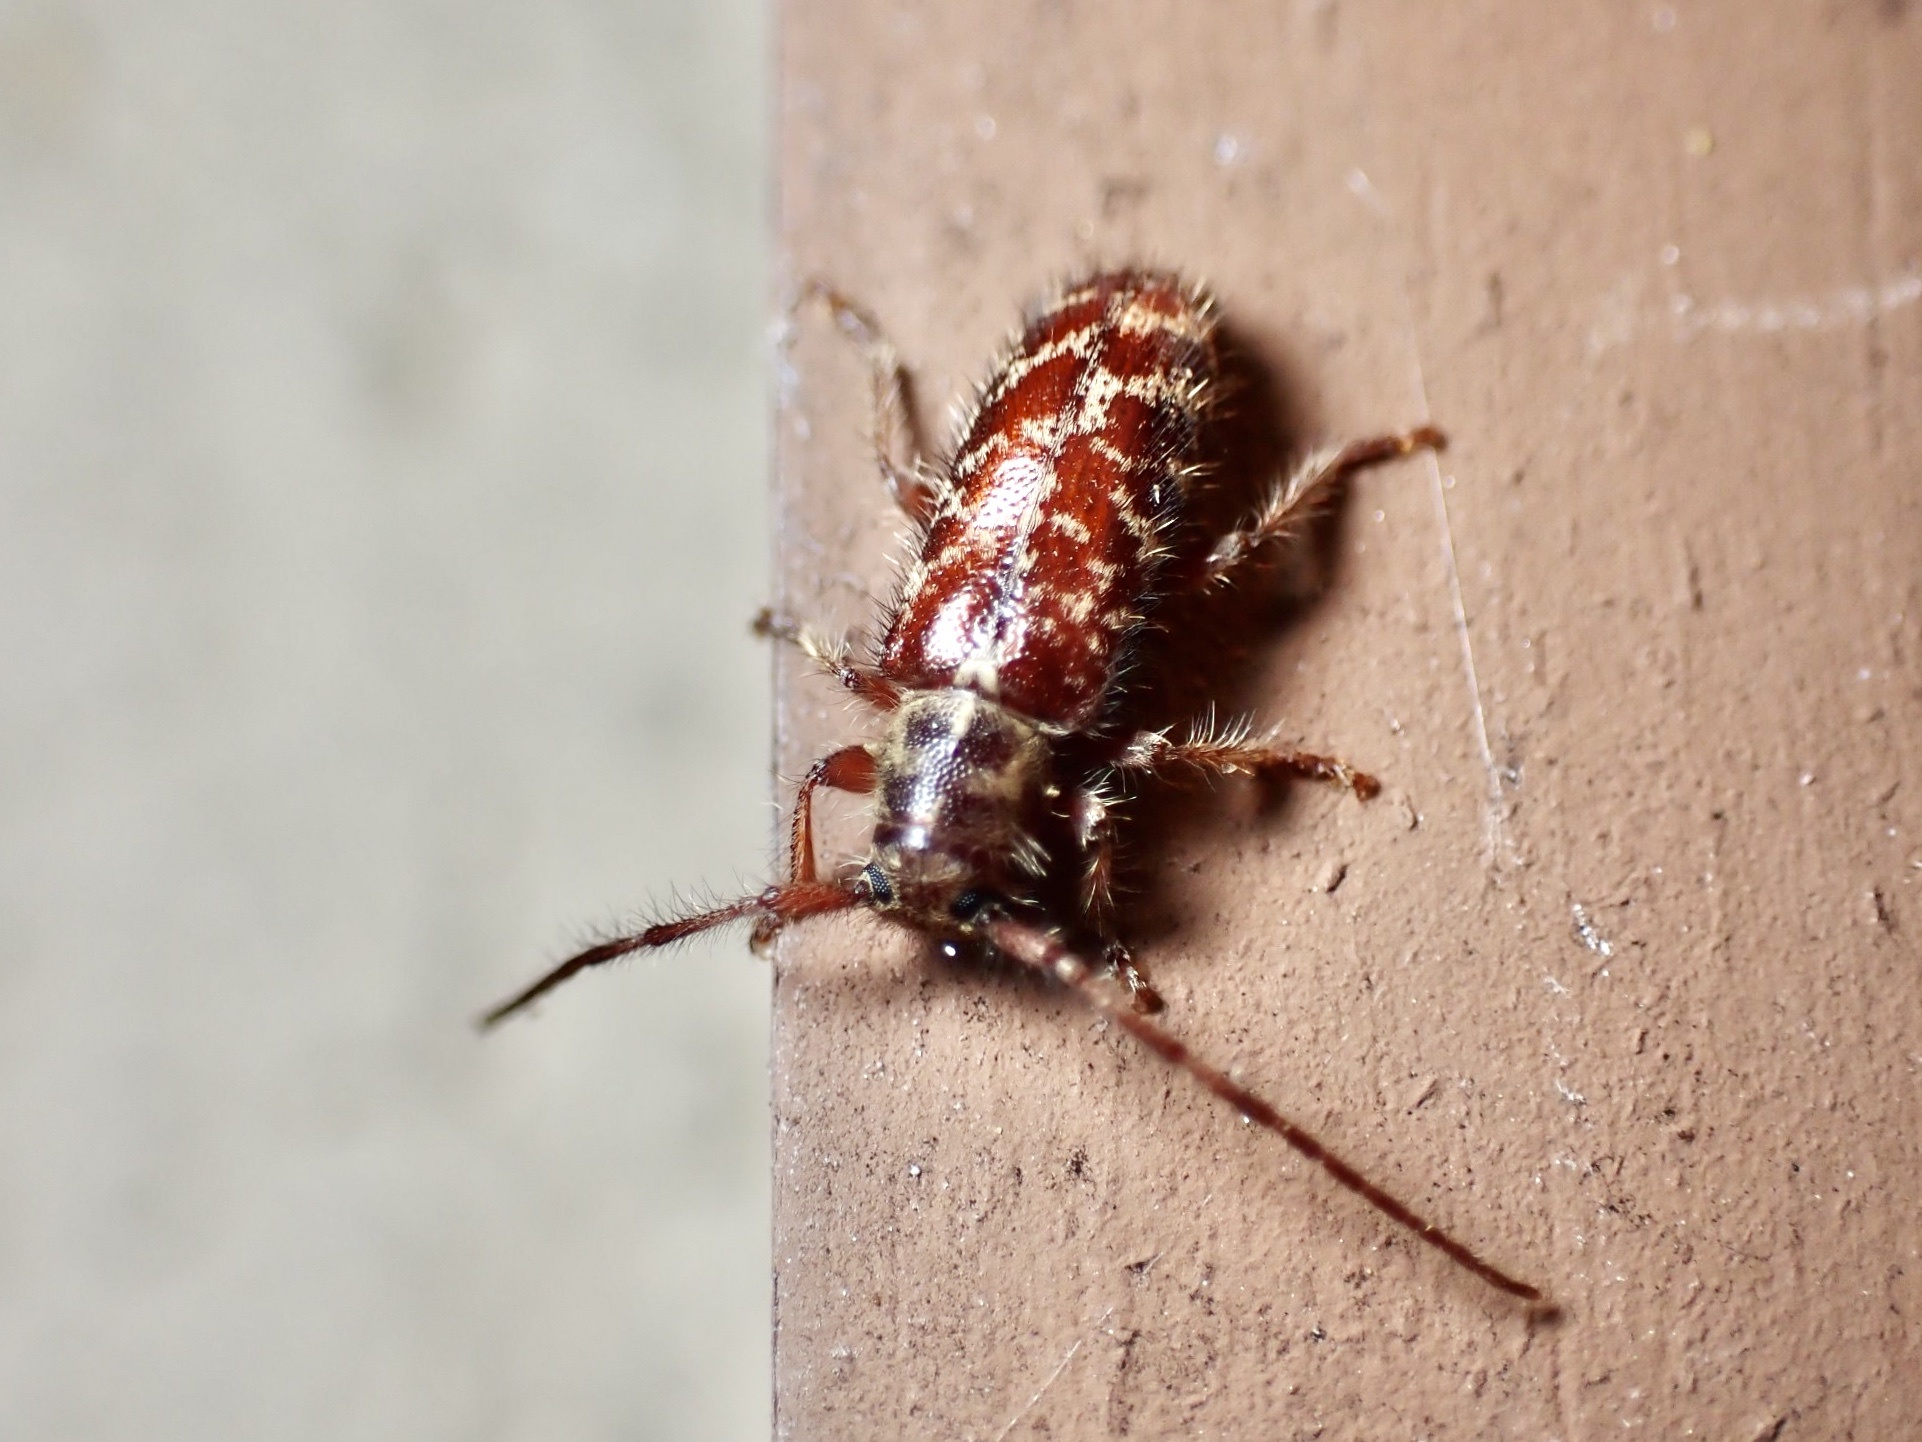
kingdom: Animalia
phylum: Arthropoda
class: Insecta
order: Coleoptera
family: Cerambycidae
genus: Eupogonius
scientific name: Eupogonius tomentosus
